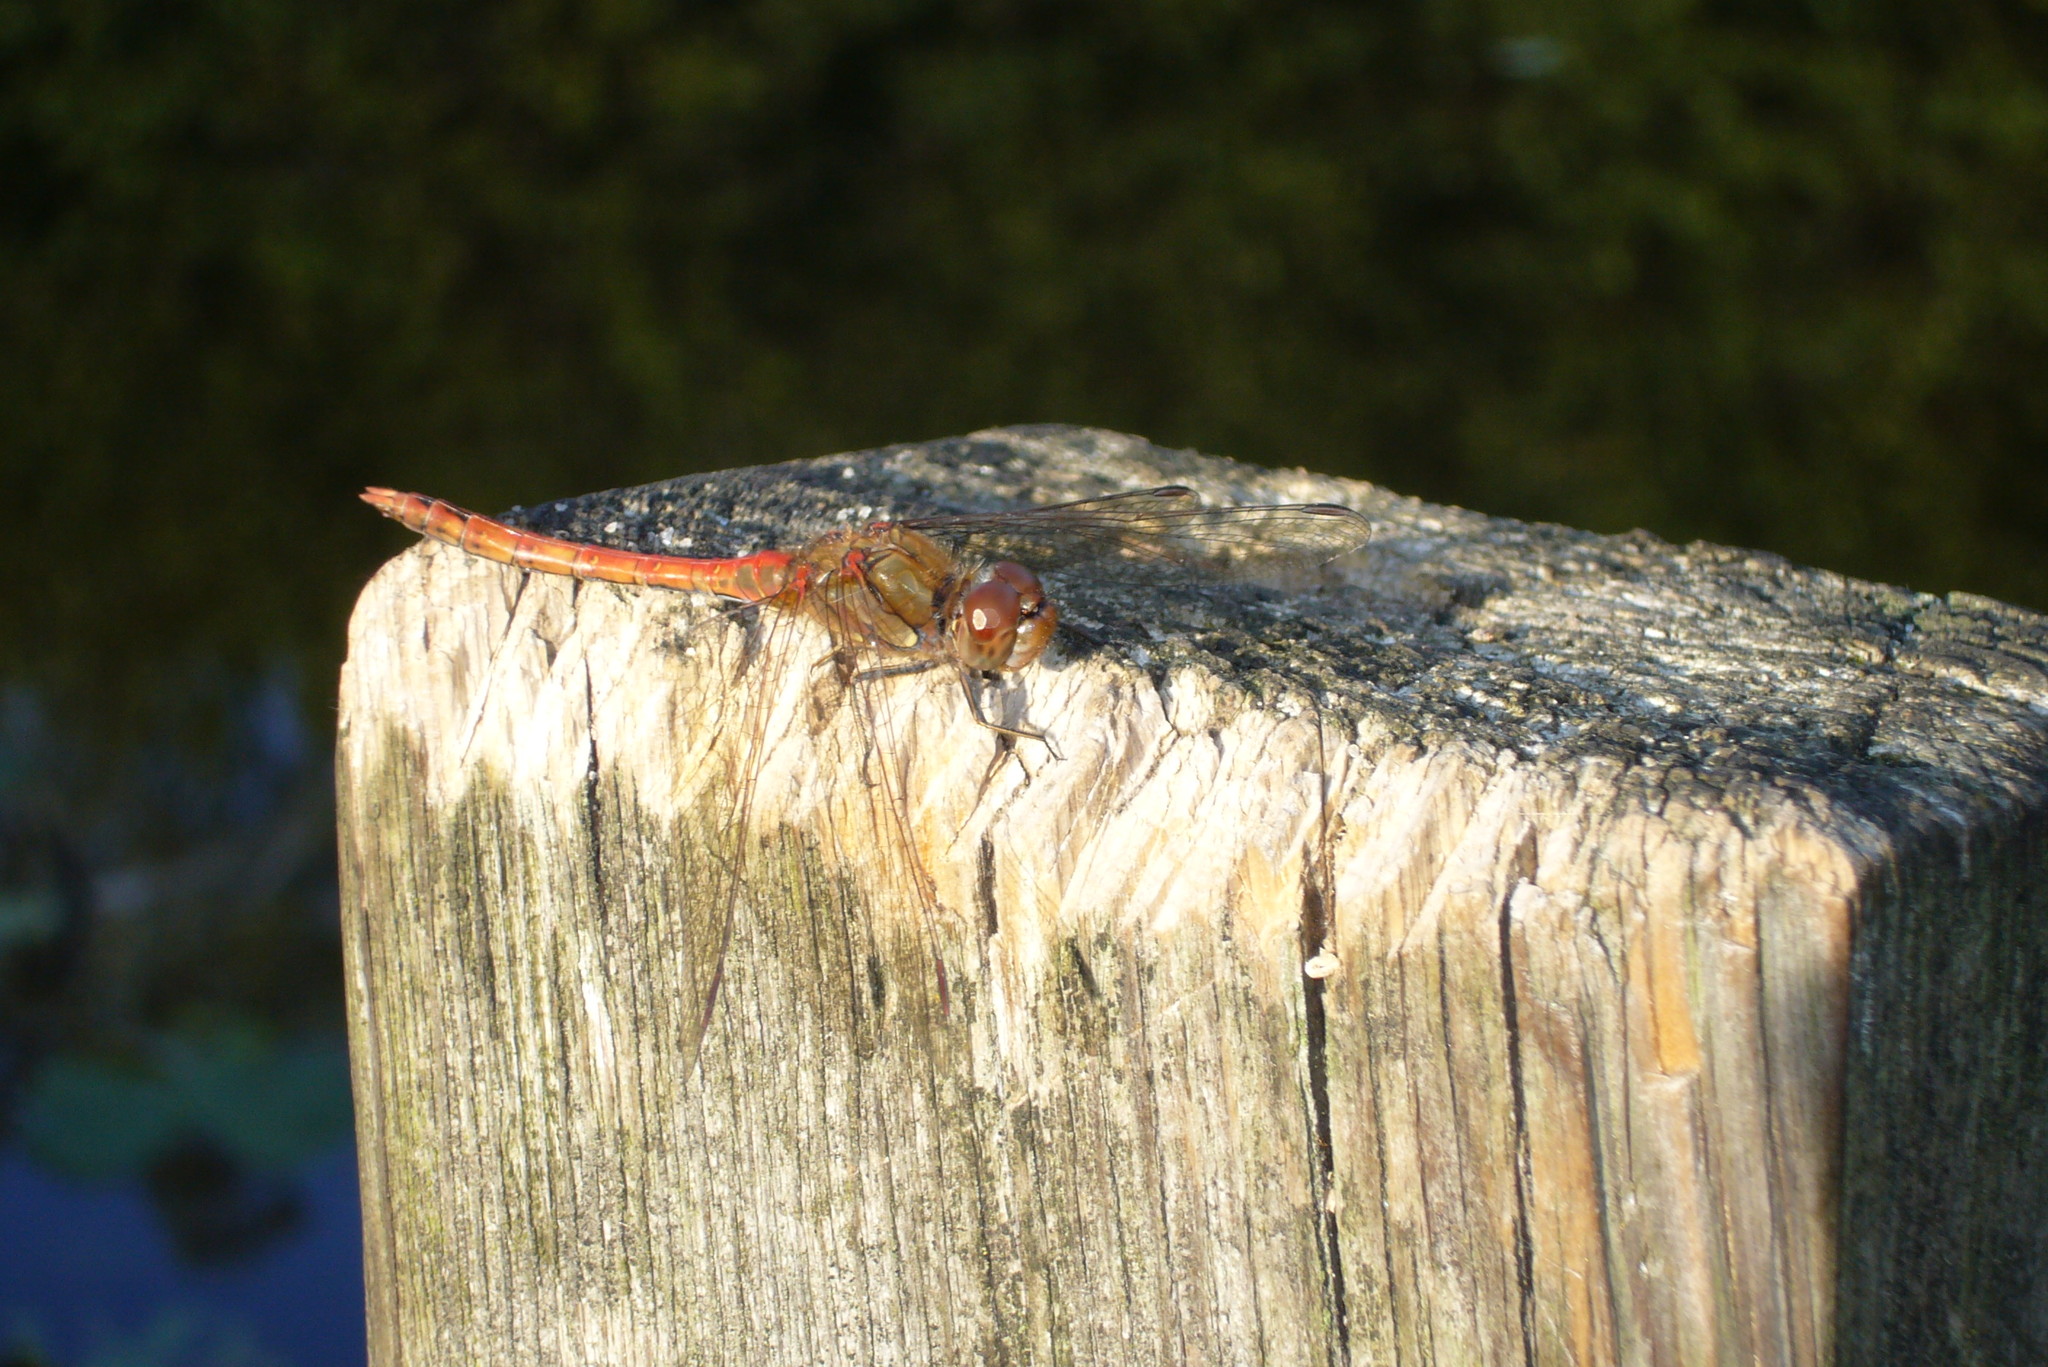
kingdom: Animalia
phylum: Arthropoda
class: Insecta
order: Odonata
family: Libellulidae
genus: Sympetrum
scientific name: Sympetrum striolatum
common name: Common darter
